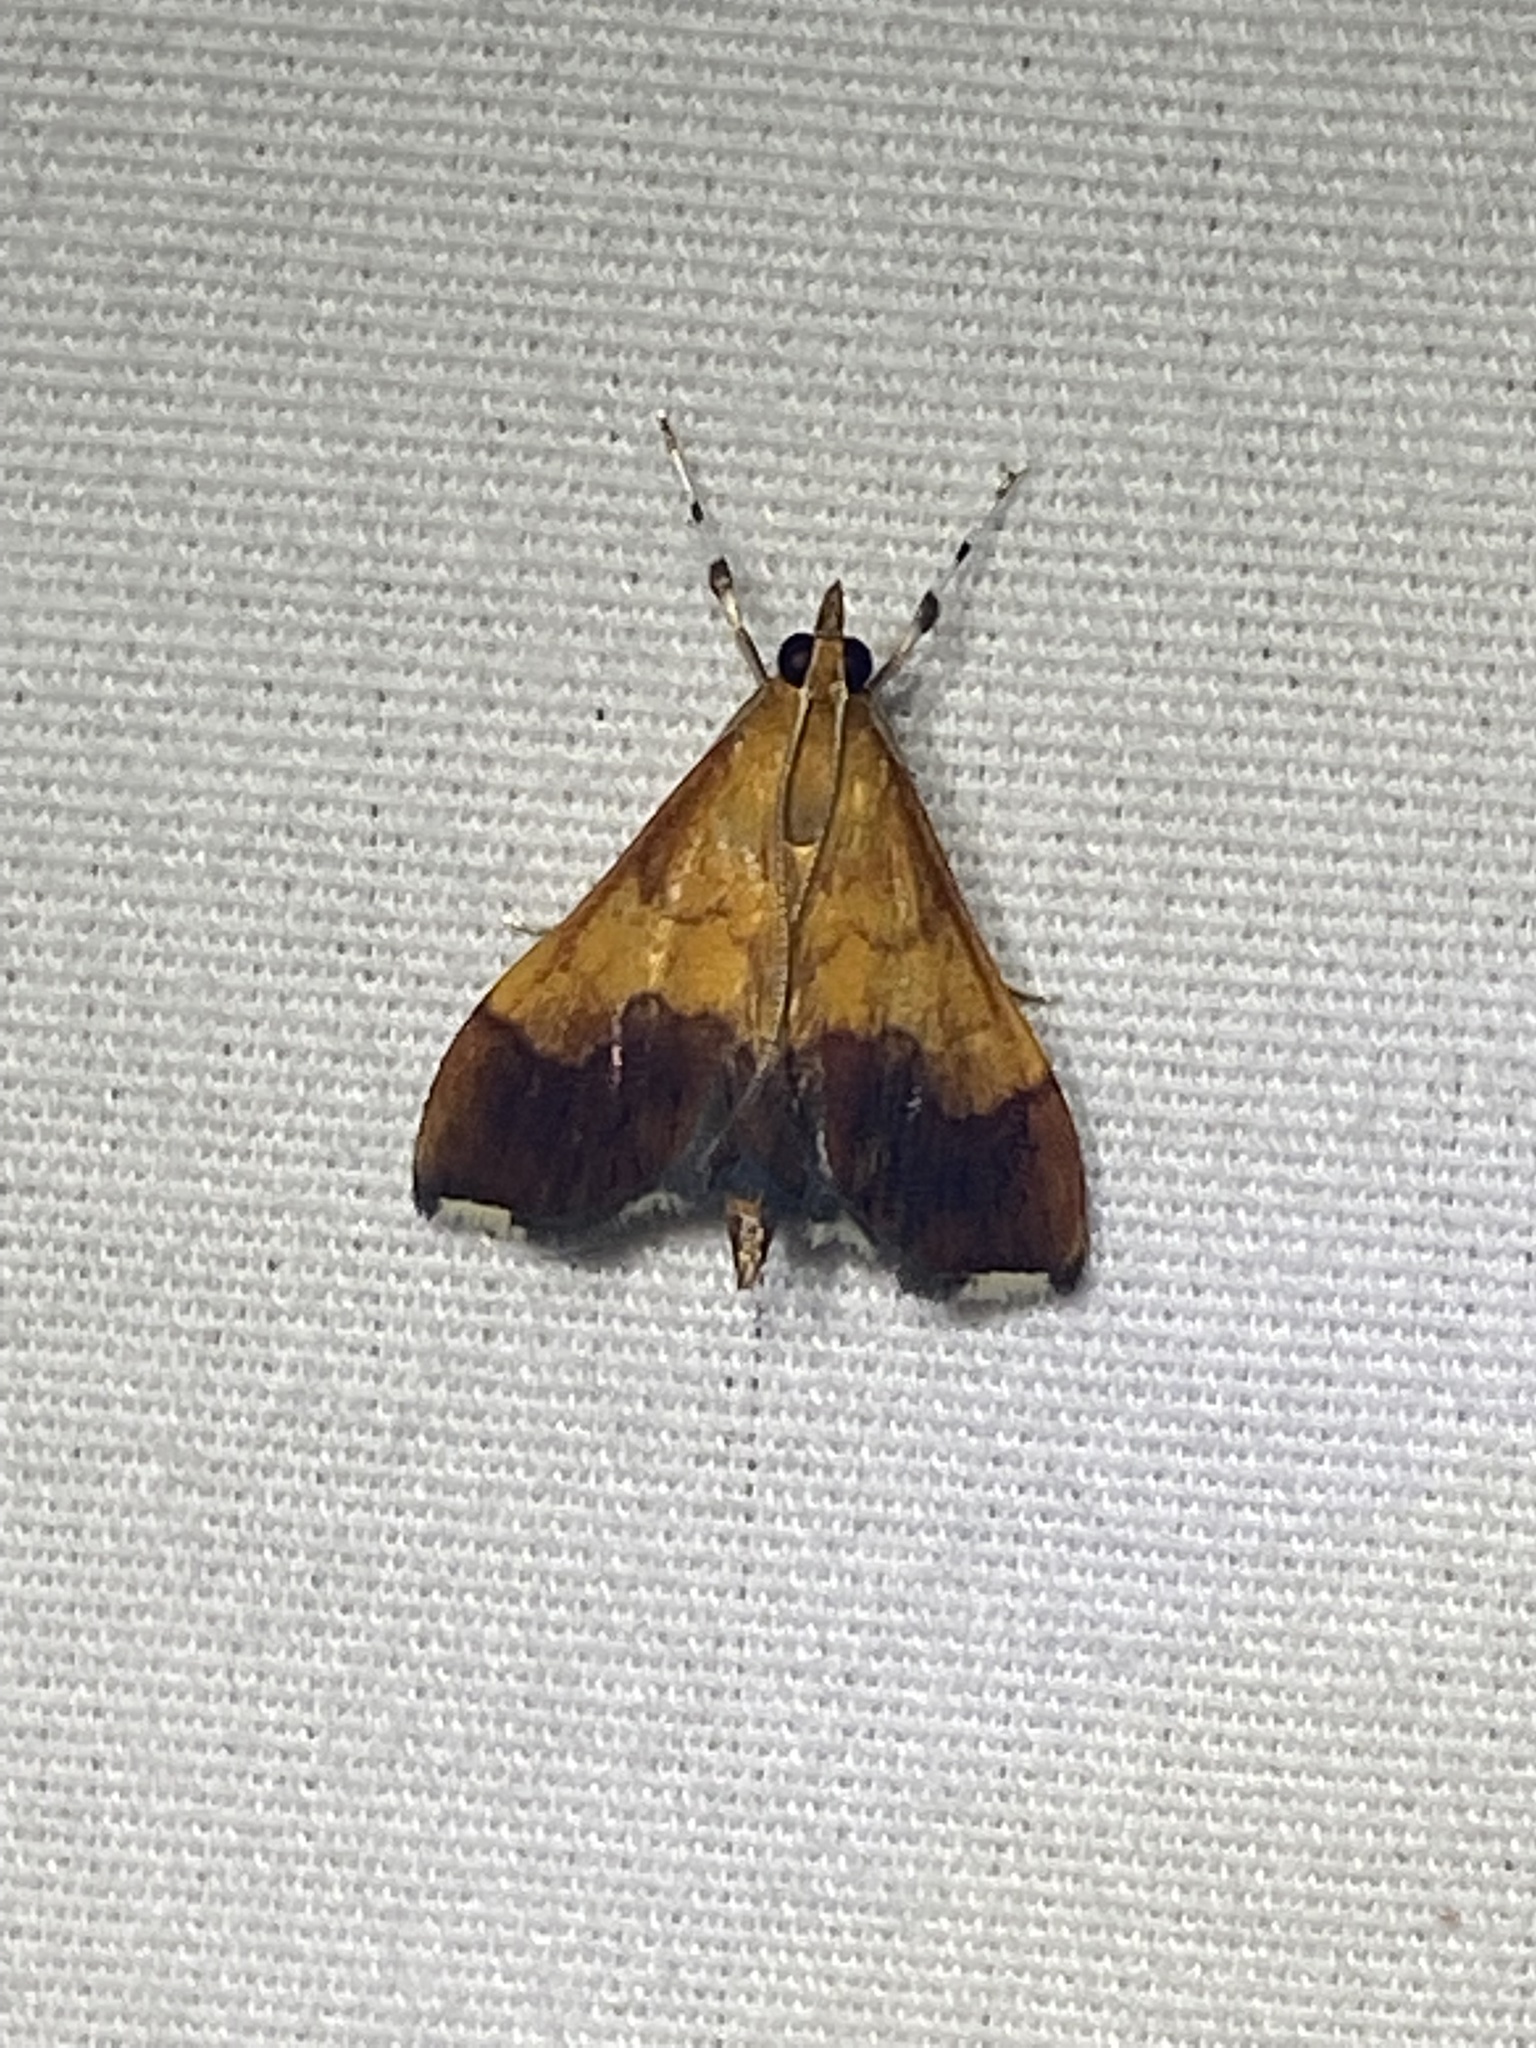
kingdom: Animalia
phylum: Arthropoda
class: Insecta
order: Lepidoptera
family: Crambidae
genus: Pyrausta
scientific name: Pyrausta bicoloralis
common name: Bicolored pyrausta moth
